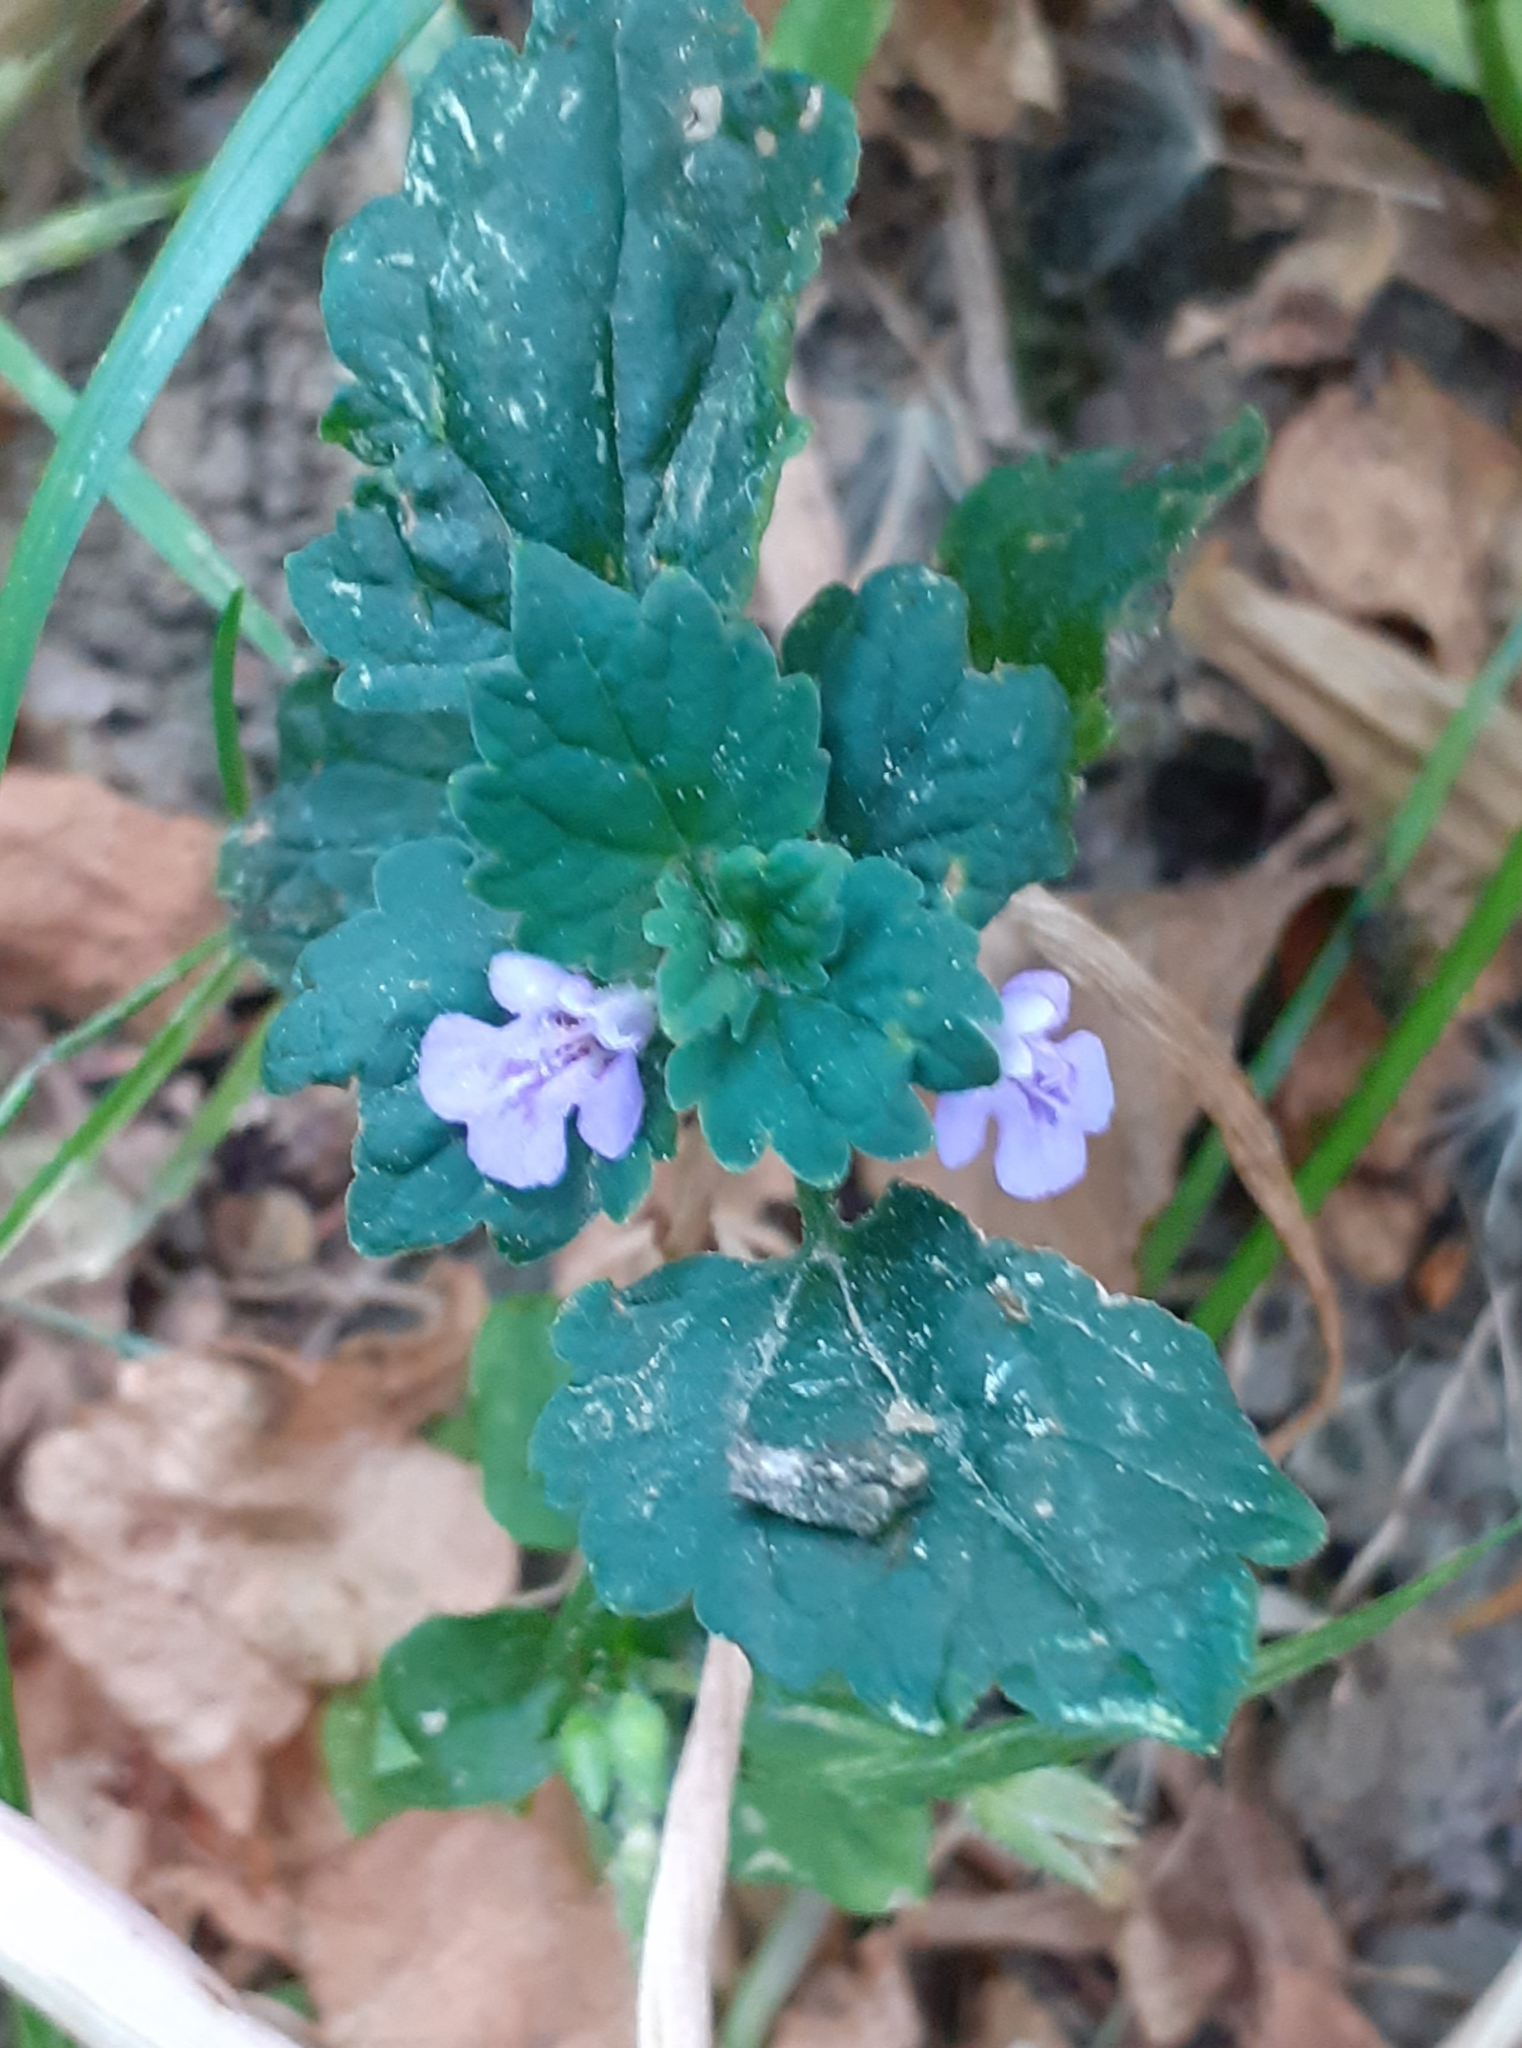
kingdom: Plantae
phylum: Tracheophyta
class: Magnoliopsida
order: Lamiales
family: Lamiaceae
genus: Glechoma
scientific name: Glechoma hederacea
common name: Ground ivy
